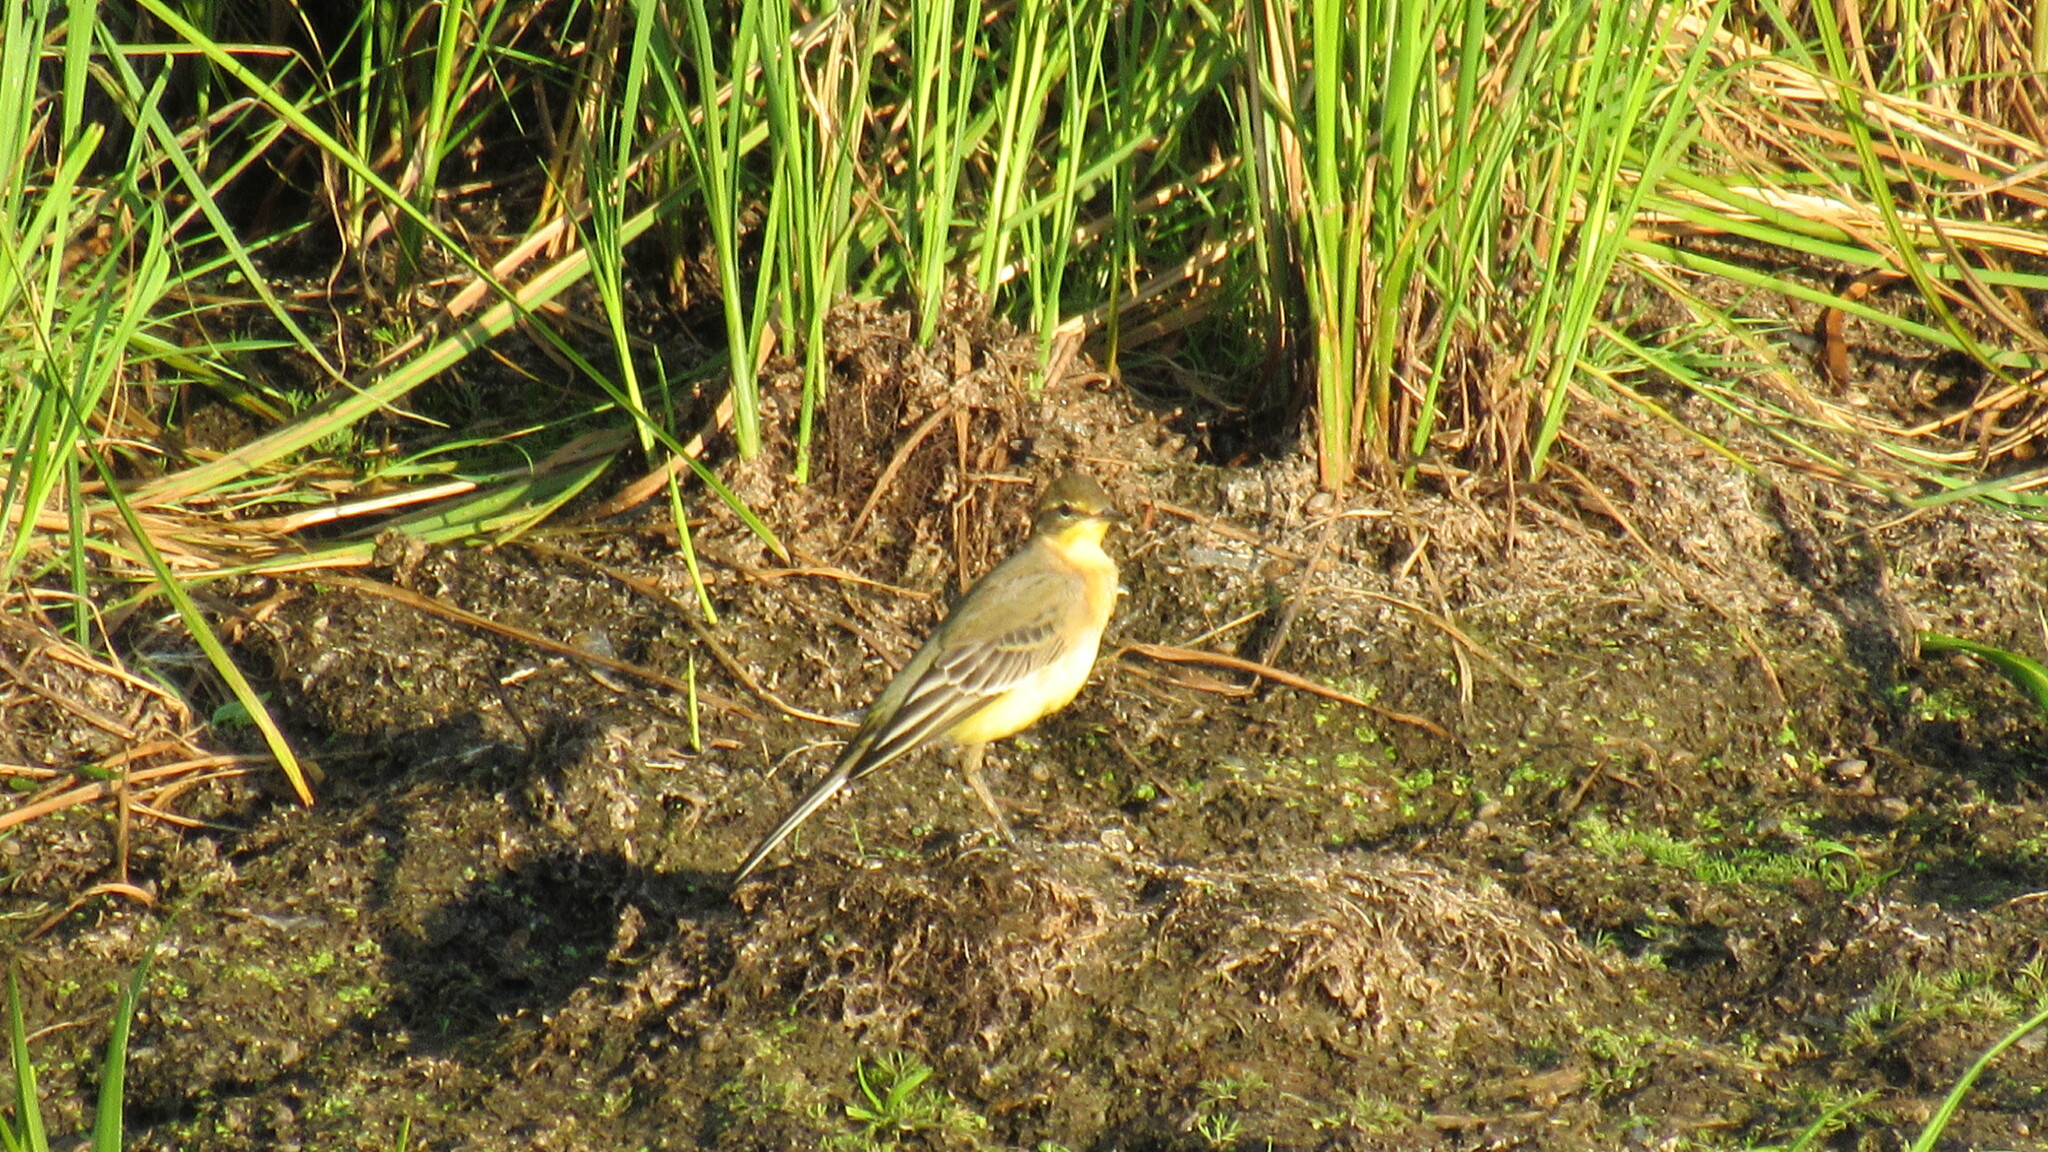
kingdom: Animalia
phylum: Chordata
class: Aves
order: Passeriformes
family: Motacillidae
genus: Motacilla
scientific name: Motacilla flava
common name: Western yellow wagtail
